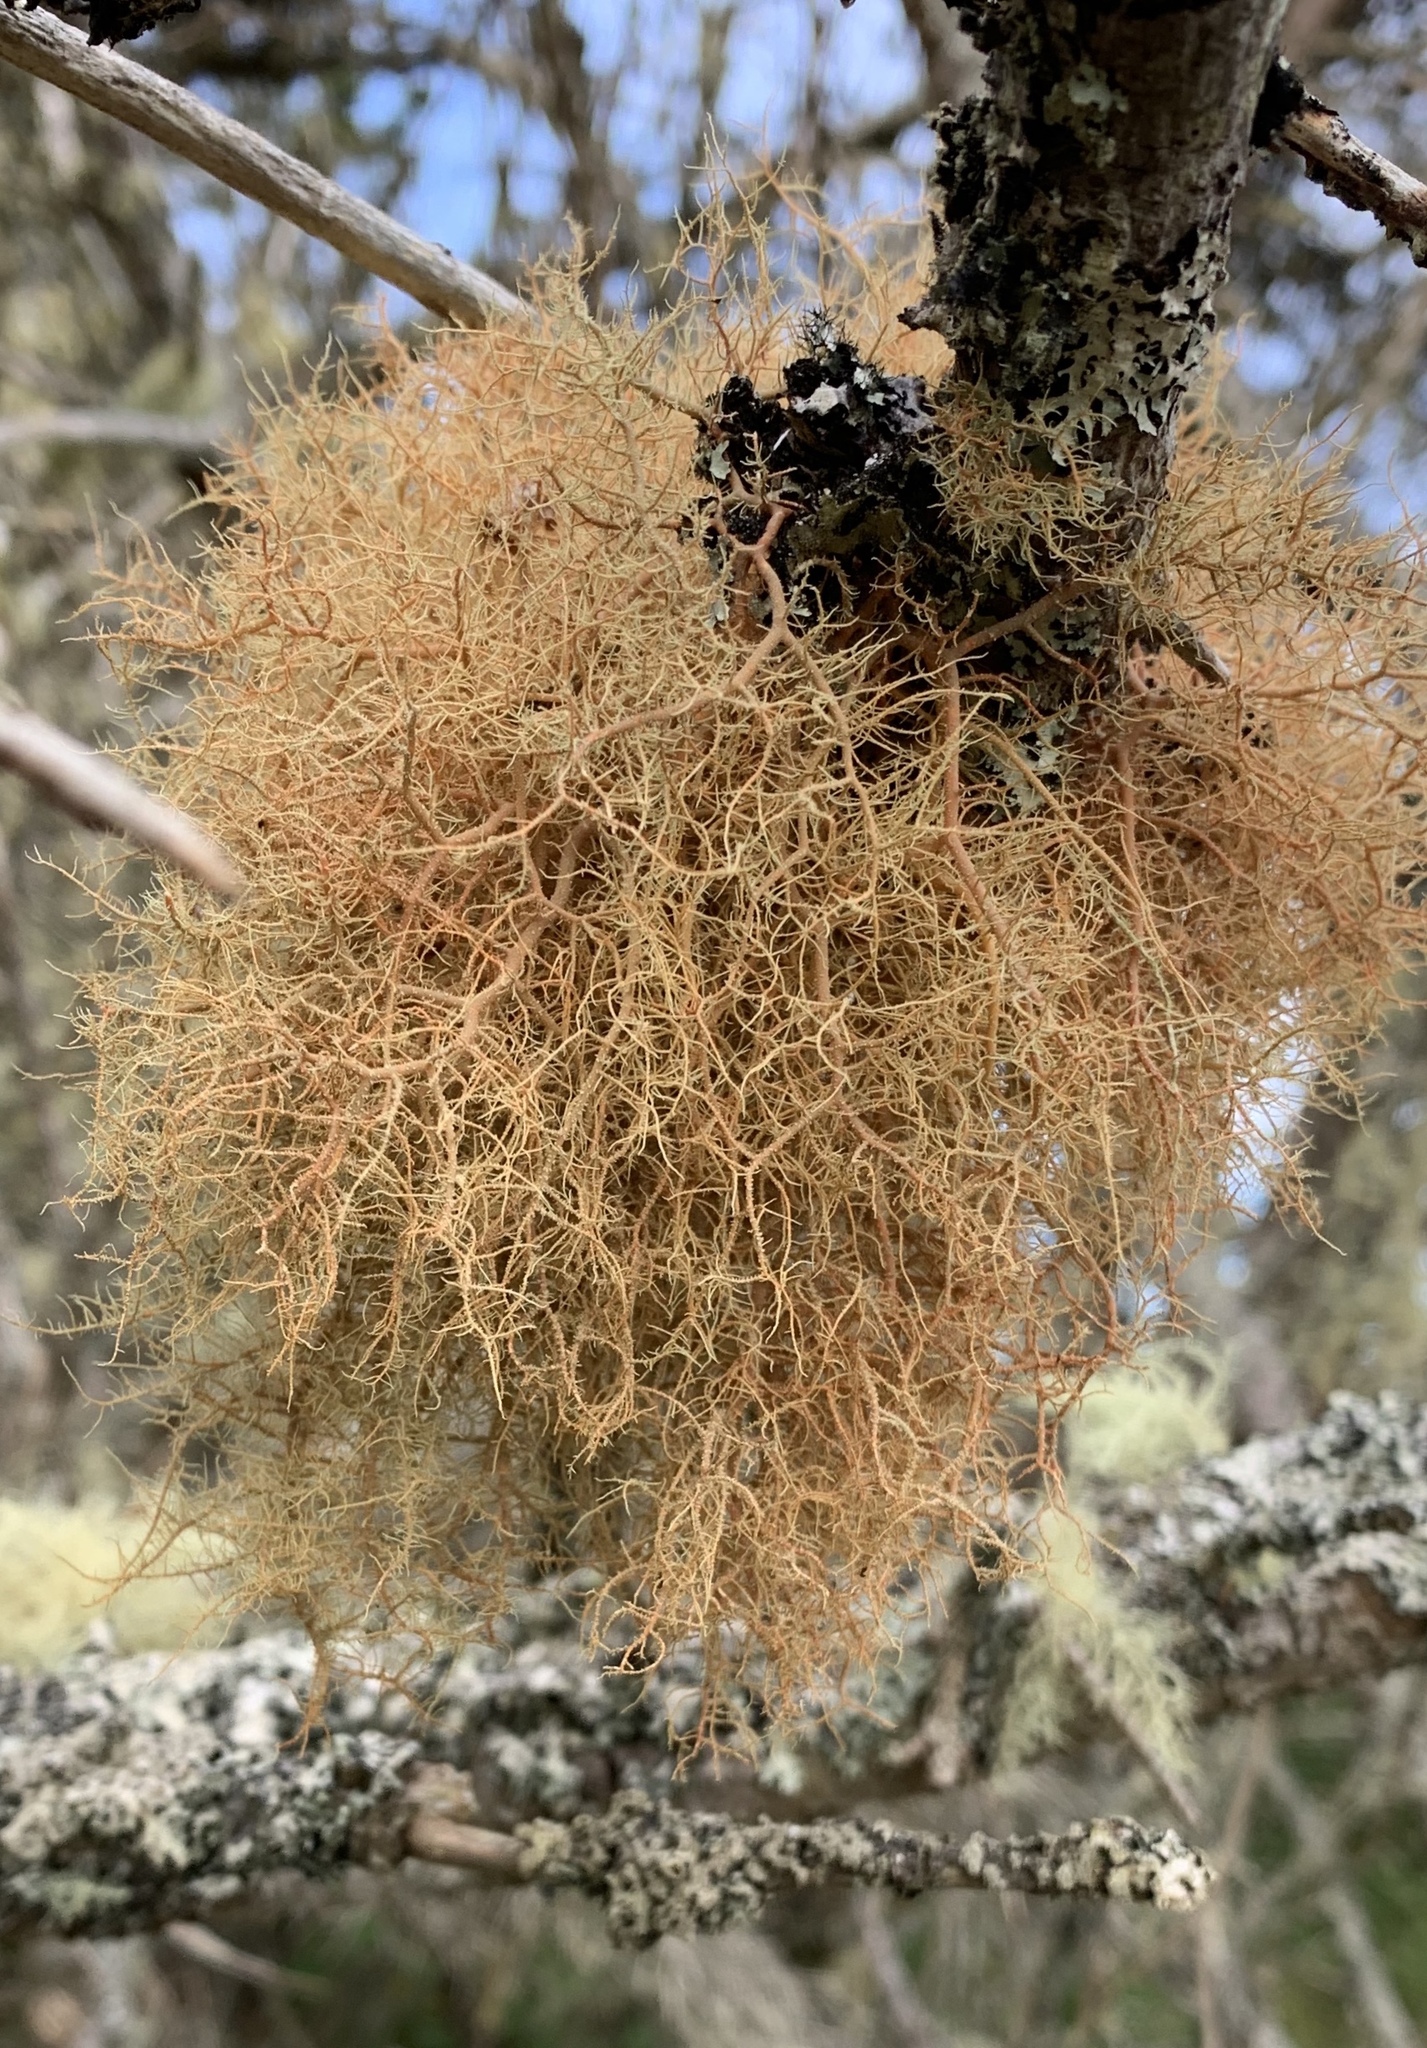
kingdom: Fungi
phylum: Ascomycota
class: Lecanoromycetes
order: Lecanorales
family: Parmeliaceae
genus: Usnea
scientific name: Usnea rubicunda
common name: Red beard lichen
